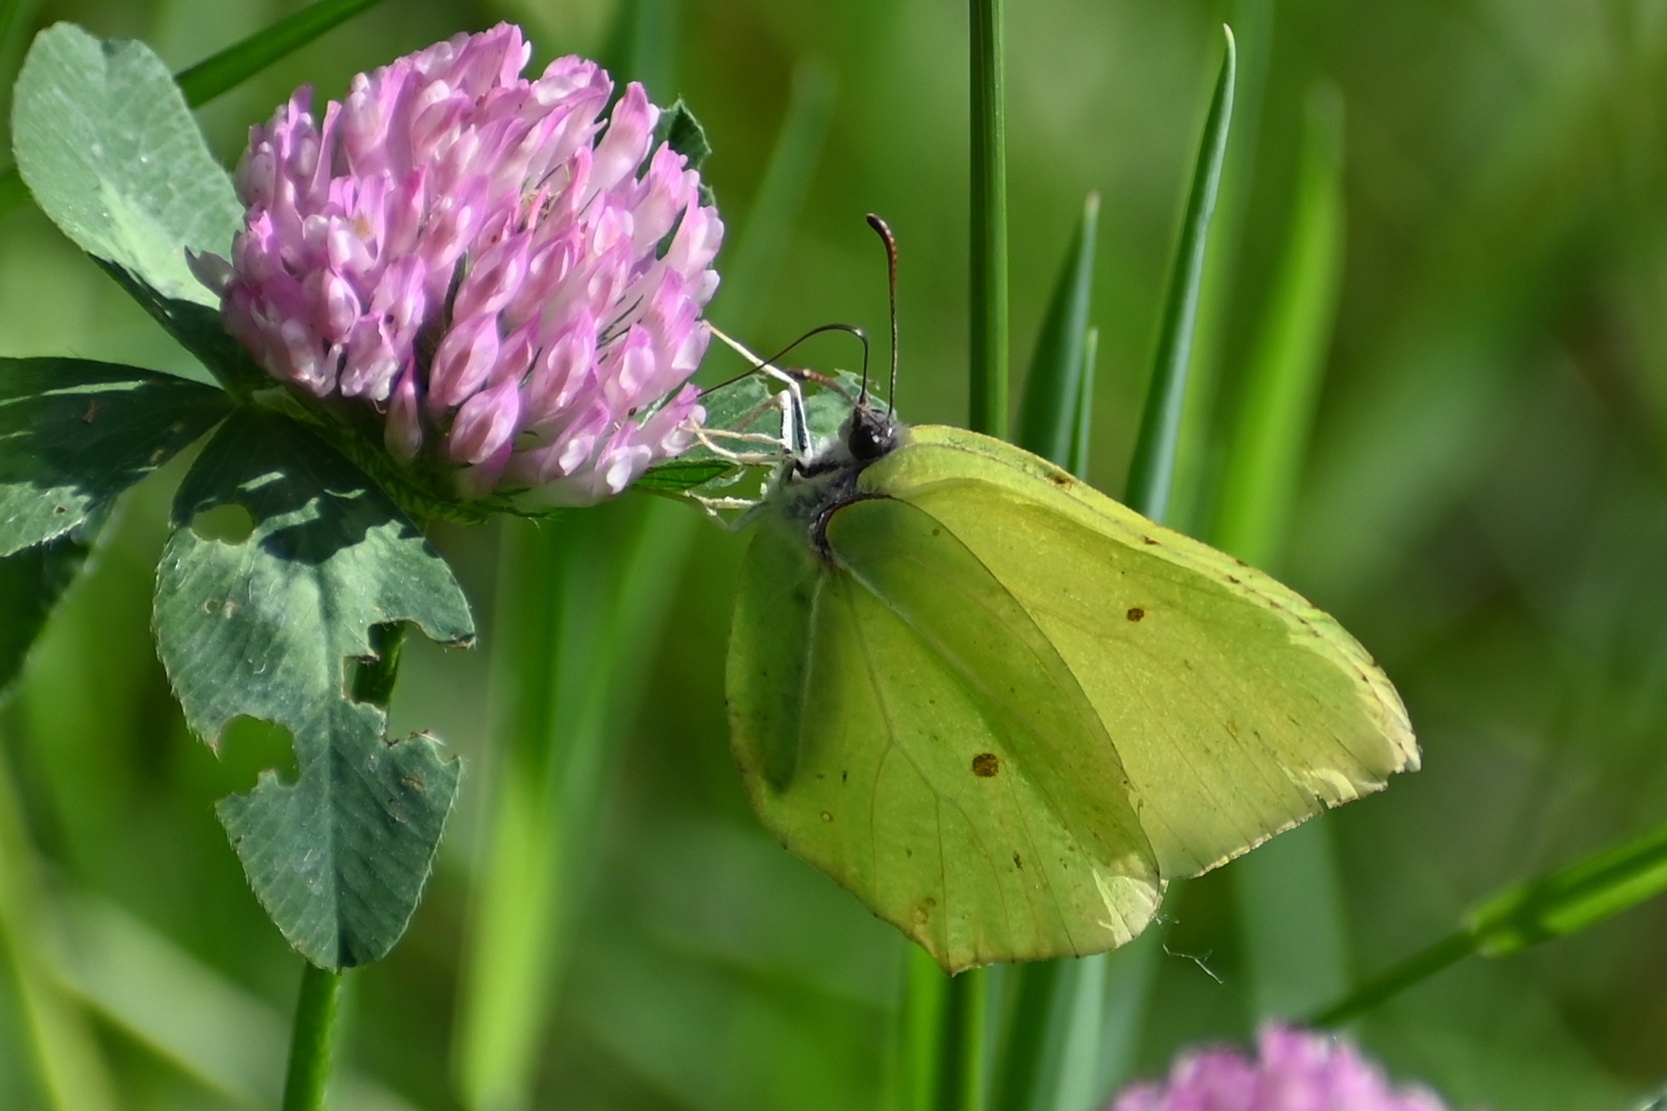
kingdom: Animalia
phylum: Arthropoda
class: Insecta
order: Lepidoptera
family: Pieridae
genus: Gonepteryx
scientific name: Gonepteryx rhamni
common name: Brimstone
